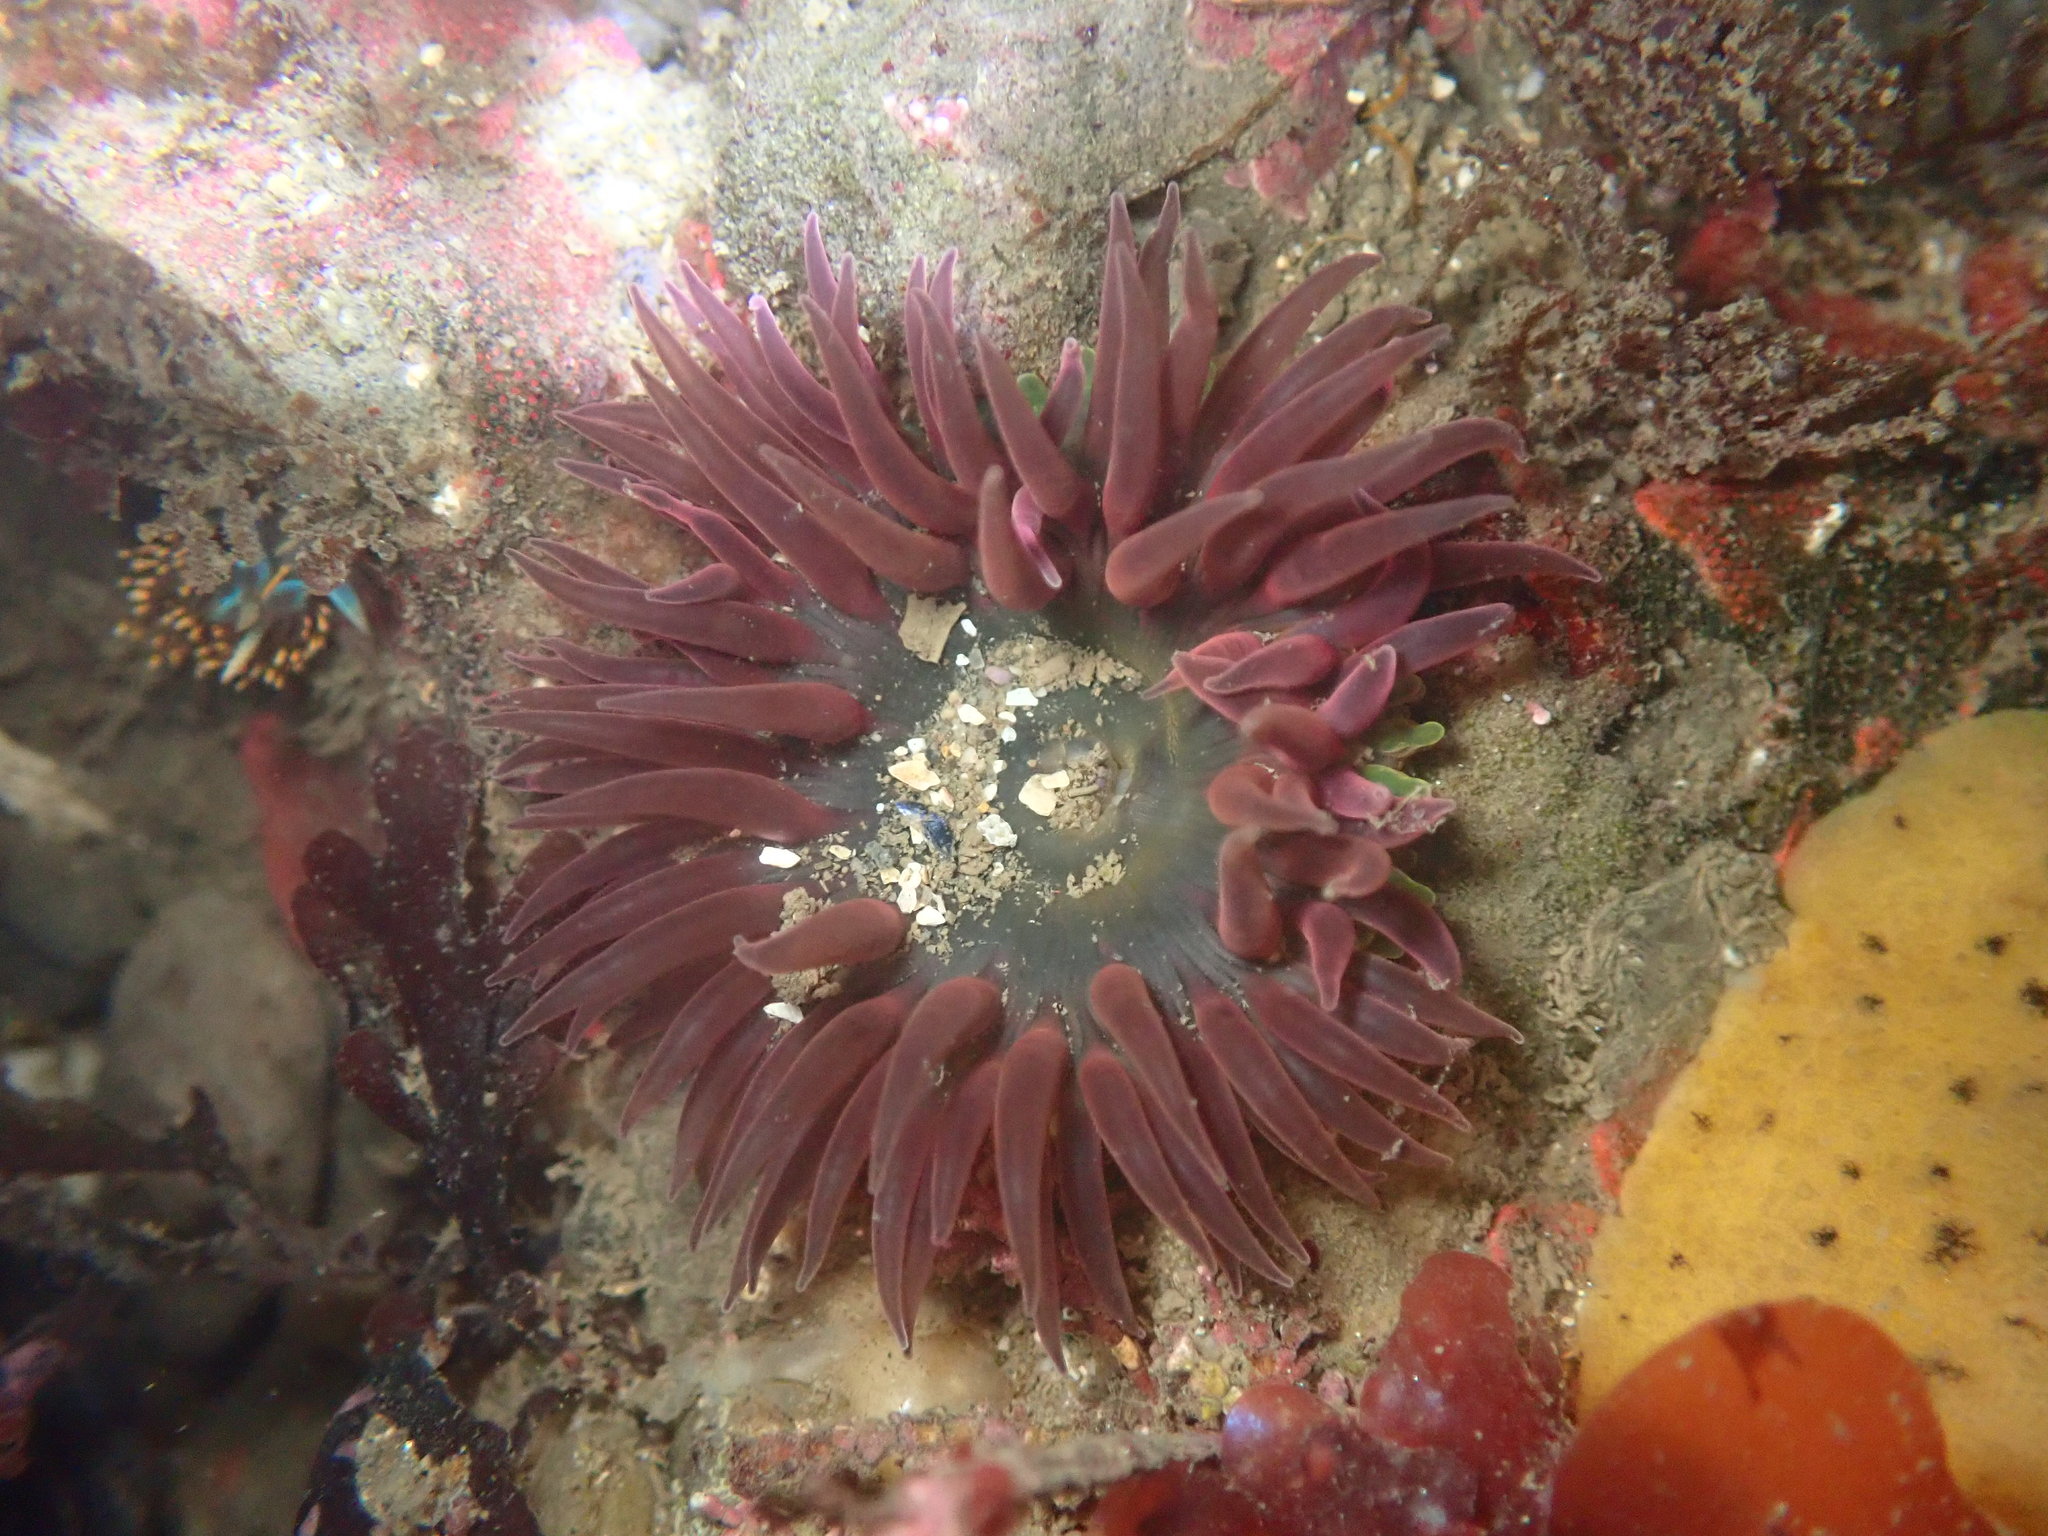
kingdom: Animalia
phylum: Cnidaria
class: Anthozoa
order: Actiniaria
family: Actiniidae
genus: Anthopleura
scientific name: Anthopleura artemisia
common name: Buried sea anemone
